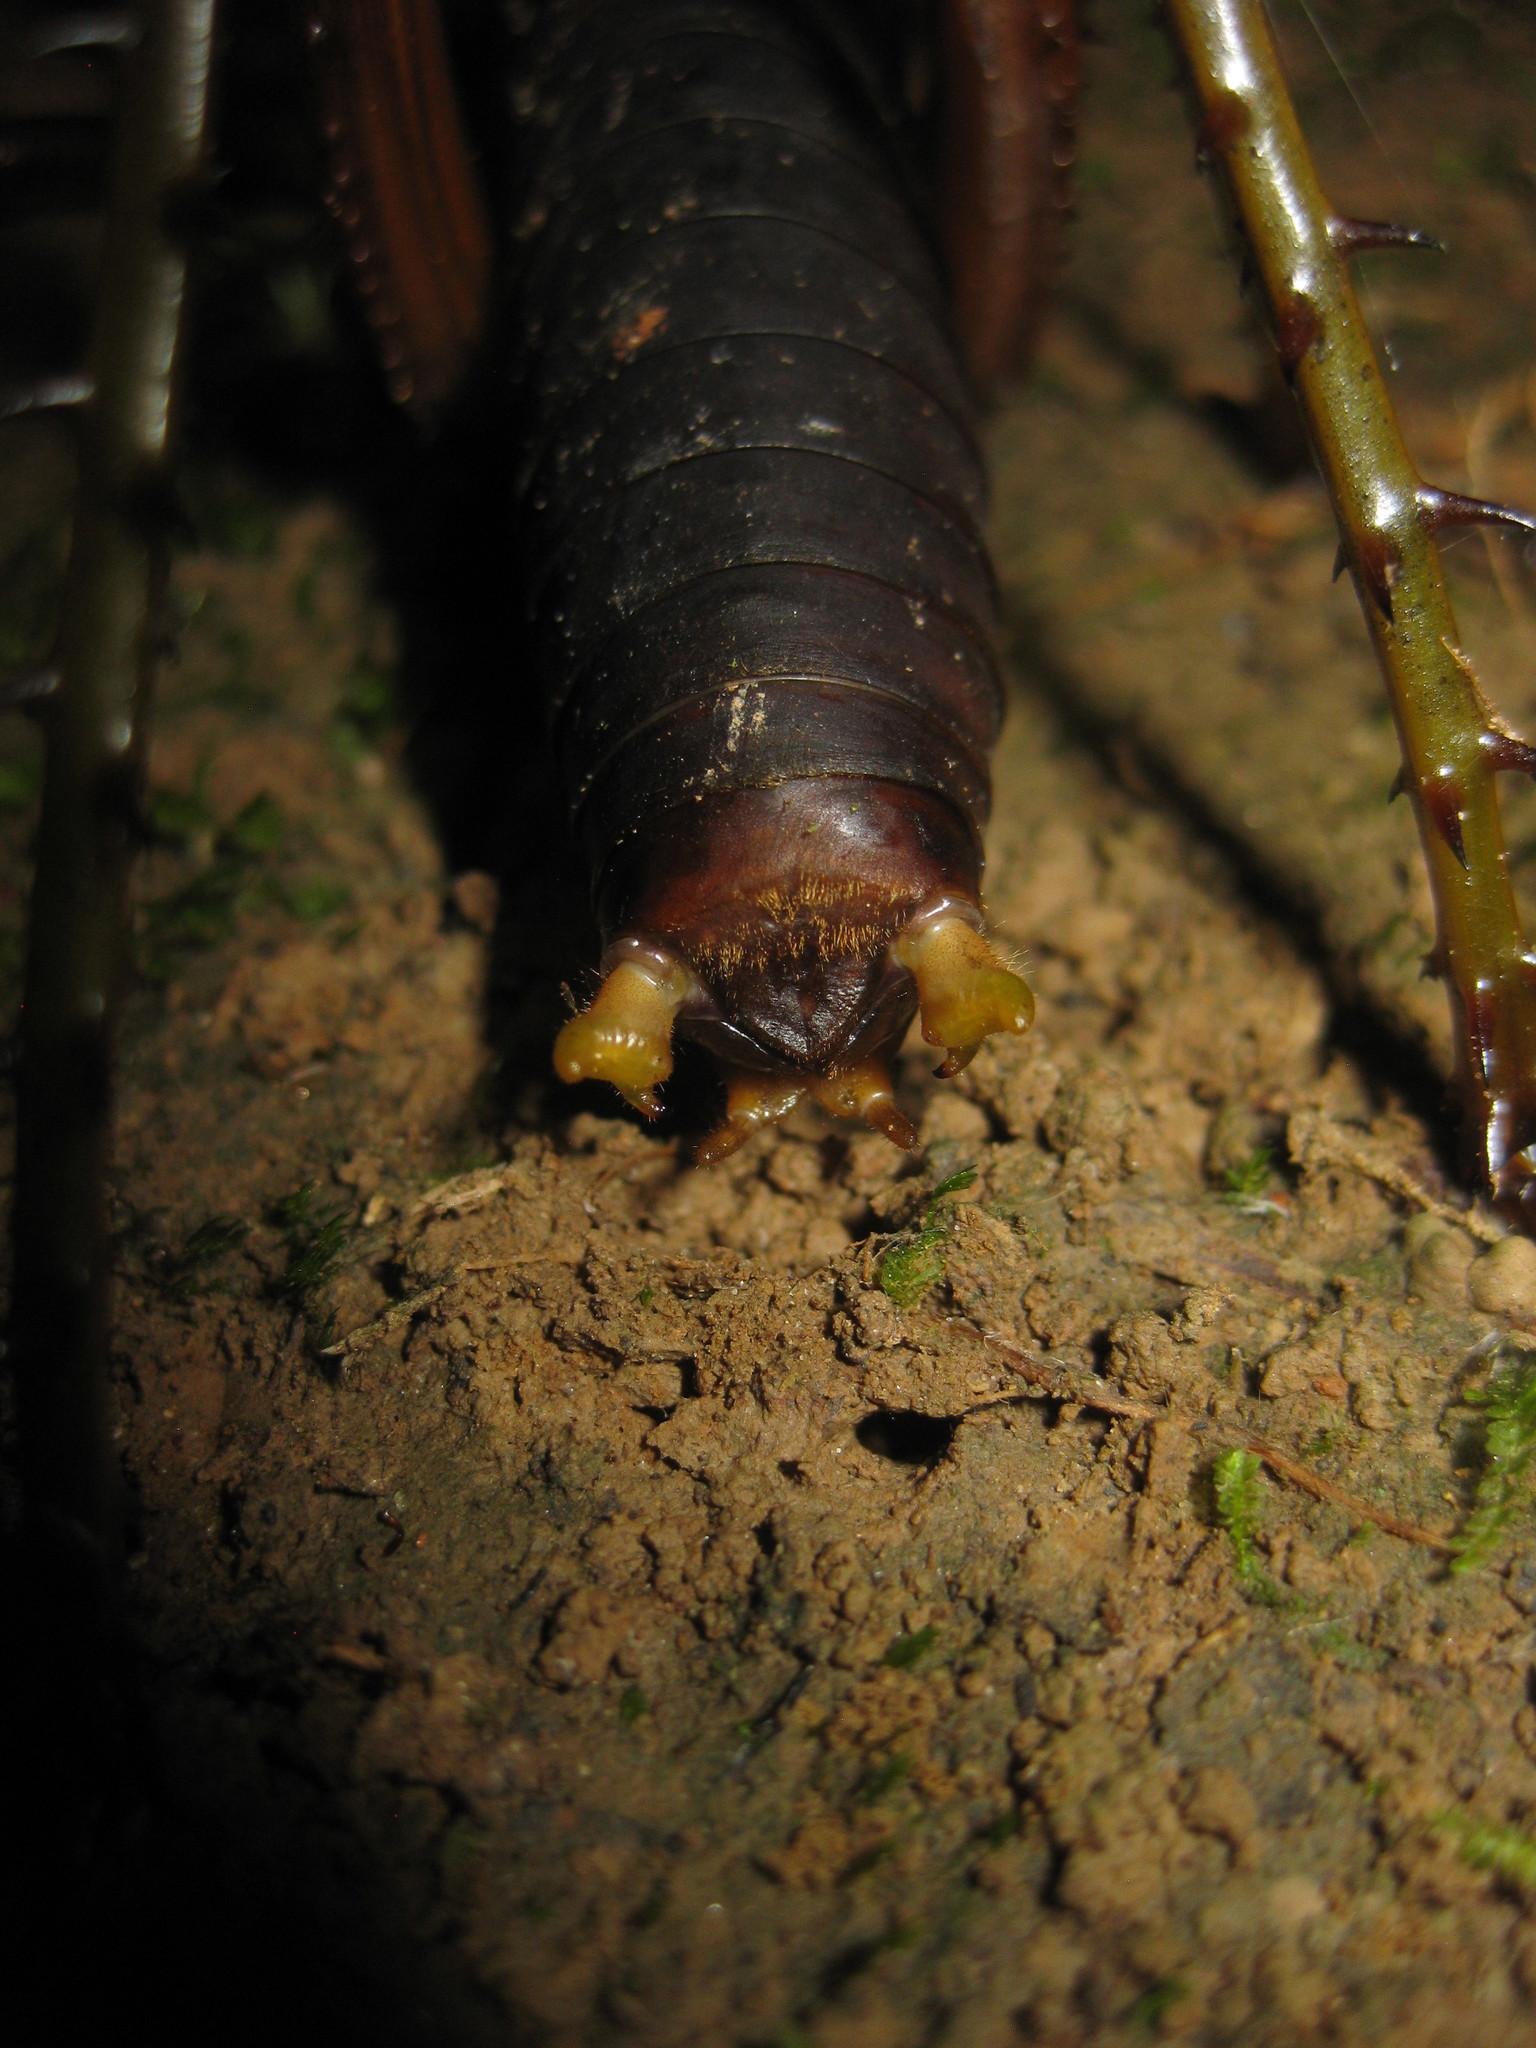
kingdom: Animalia
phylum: Arthropoda
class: Insecta
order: Orthoptera
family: Tettigoniidae
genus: Panoploscelis
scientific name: Panoploscelis specularis
